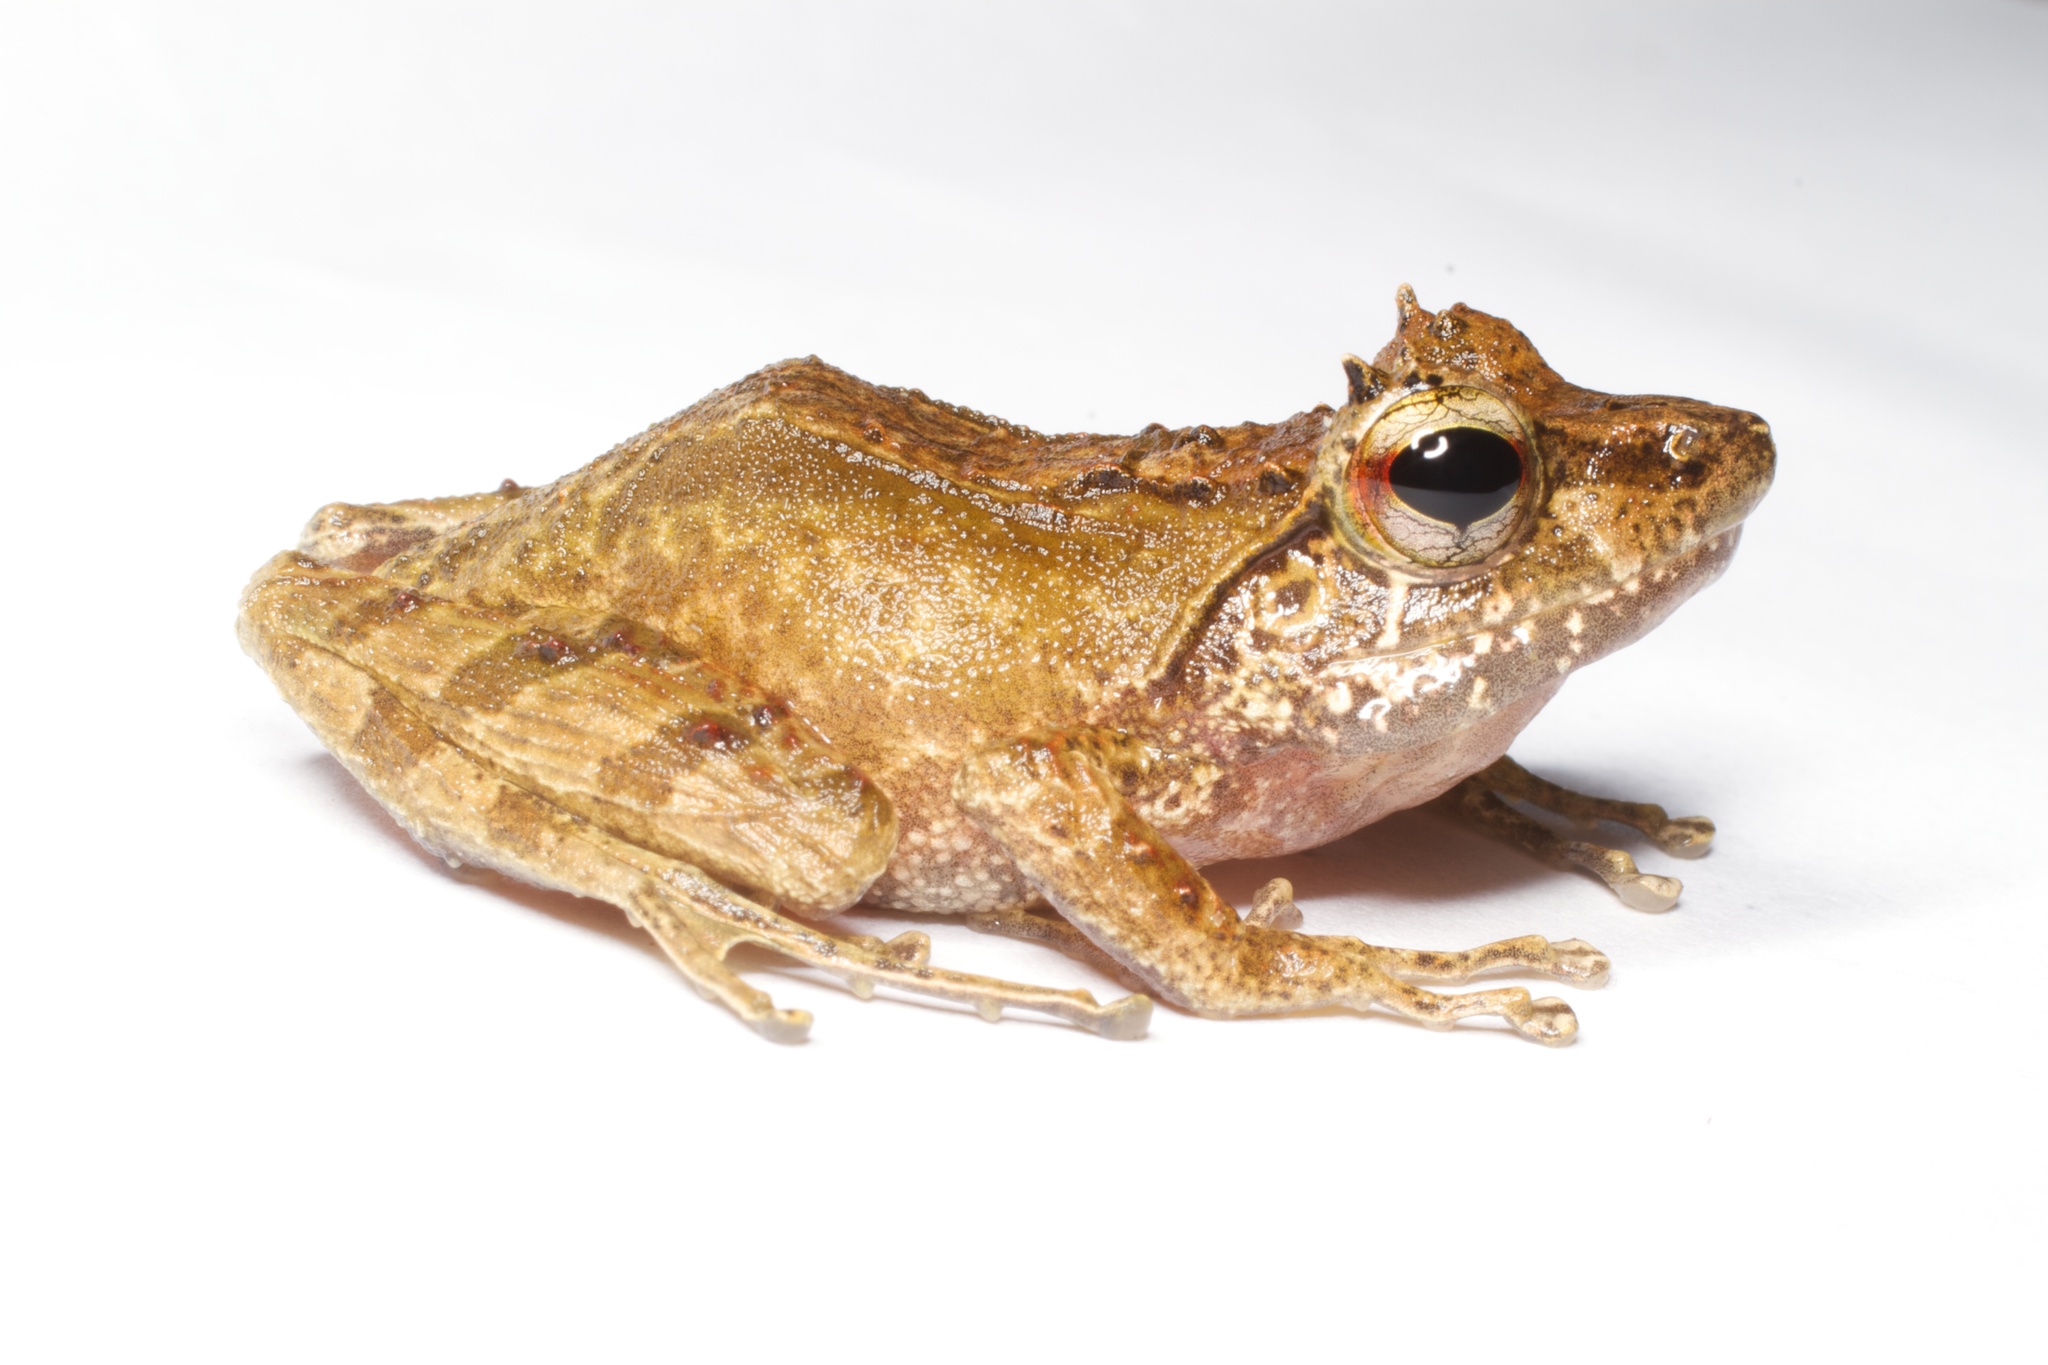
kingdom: Animalia
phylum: Chordata
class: Amphibia
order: Anura
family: Mantellidae
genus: Gephyromantis
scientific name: Gephyromantis tschenki
